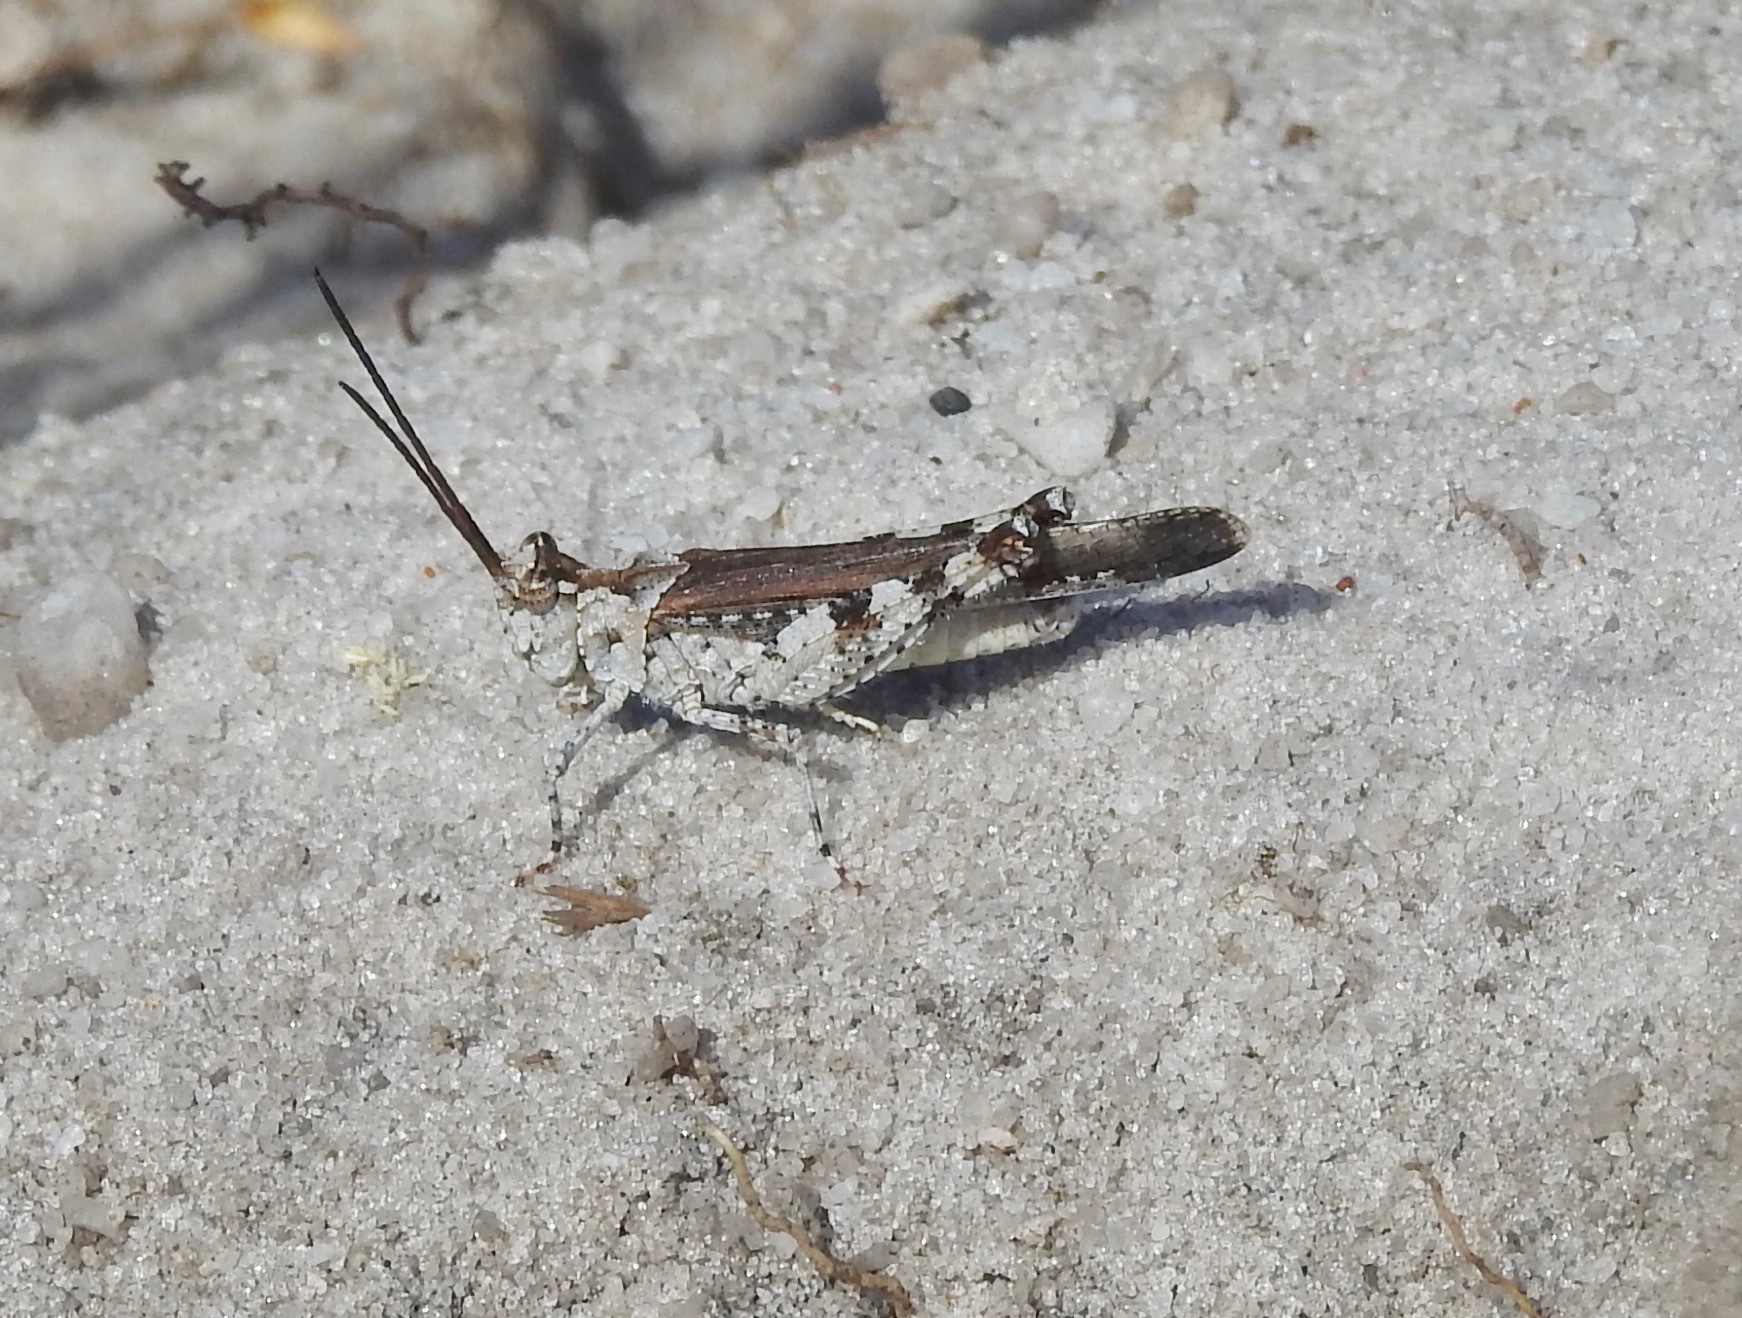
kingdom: Animalia
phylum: Arthropoda
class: Insecta
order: Orthoptera
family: Acrididae
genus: Psinidia
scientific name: Psinidia fenestralis
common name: Long-horned locust
